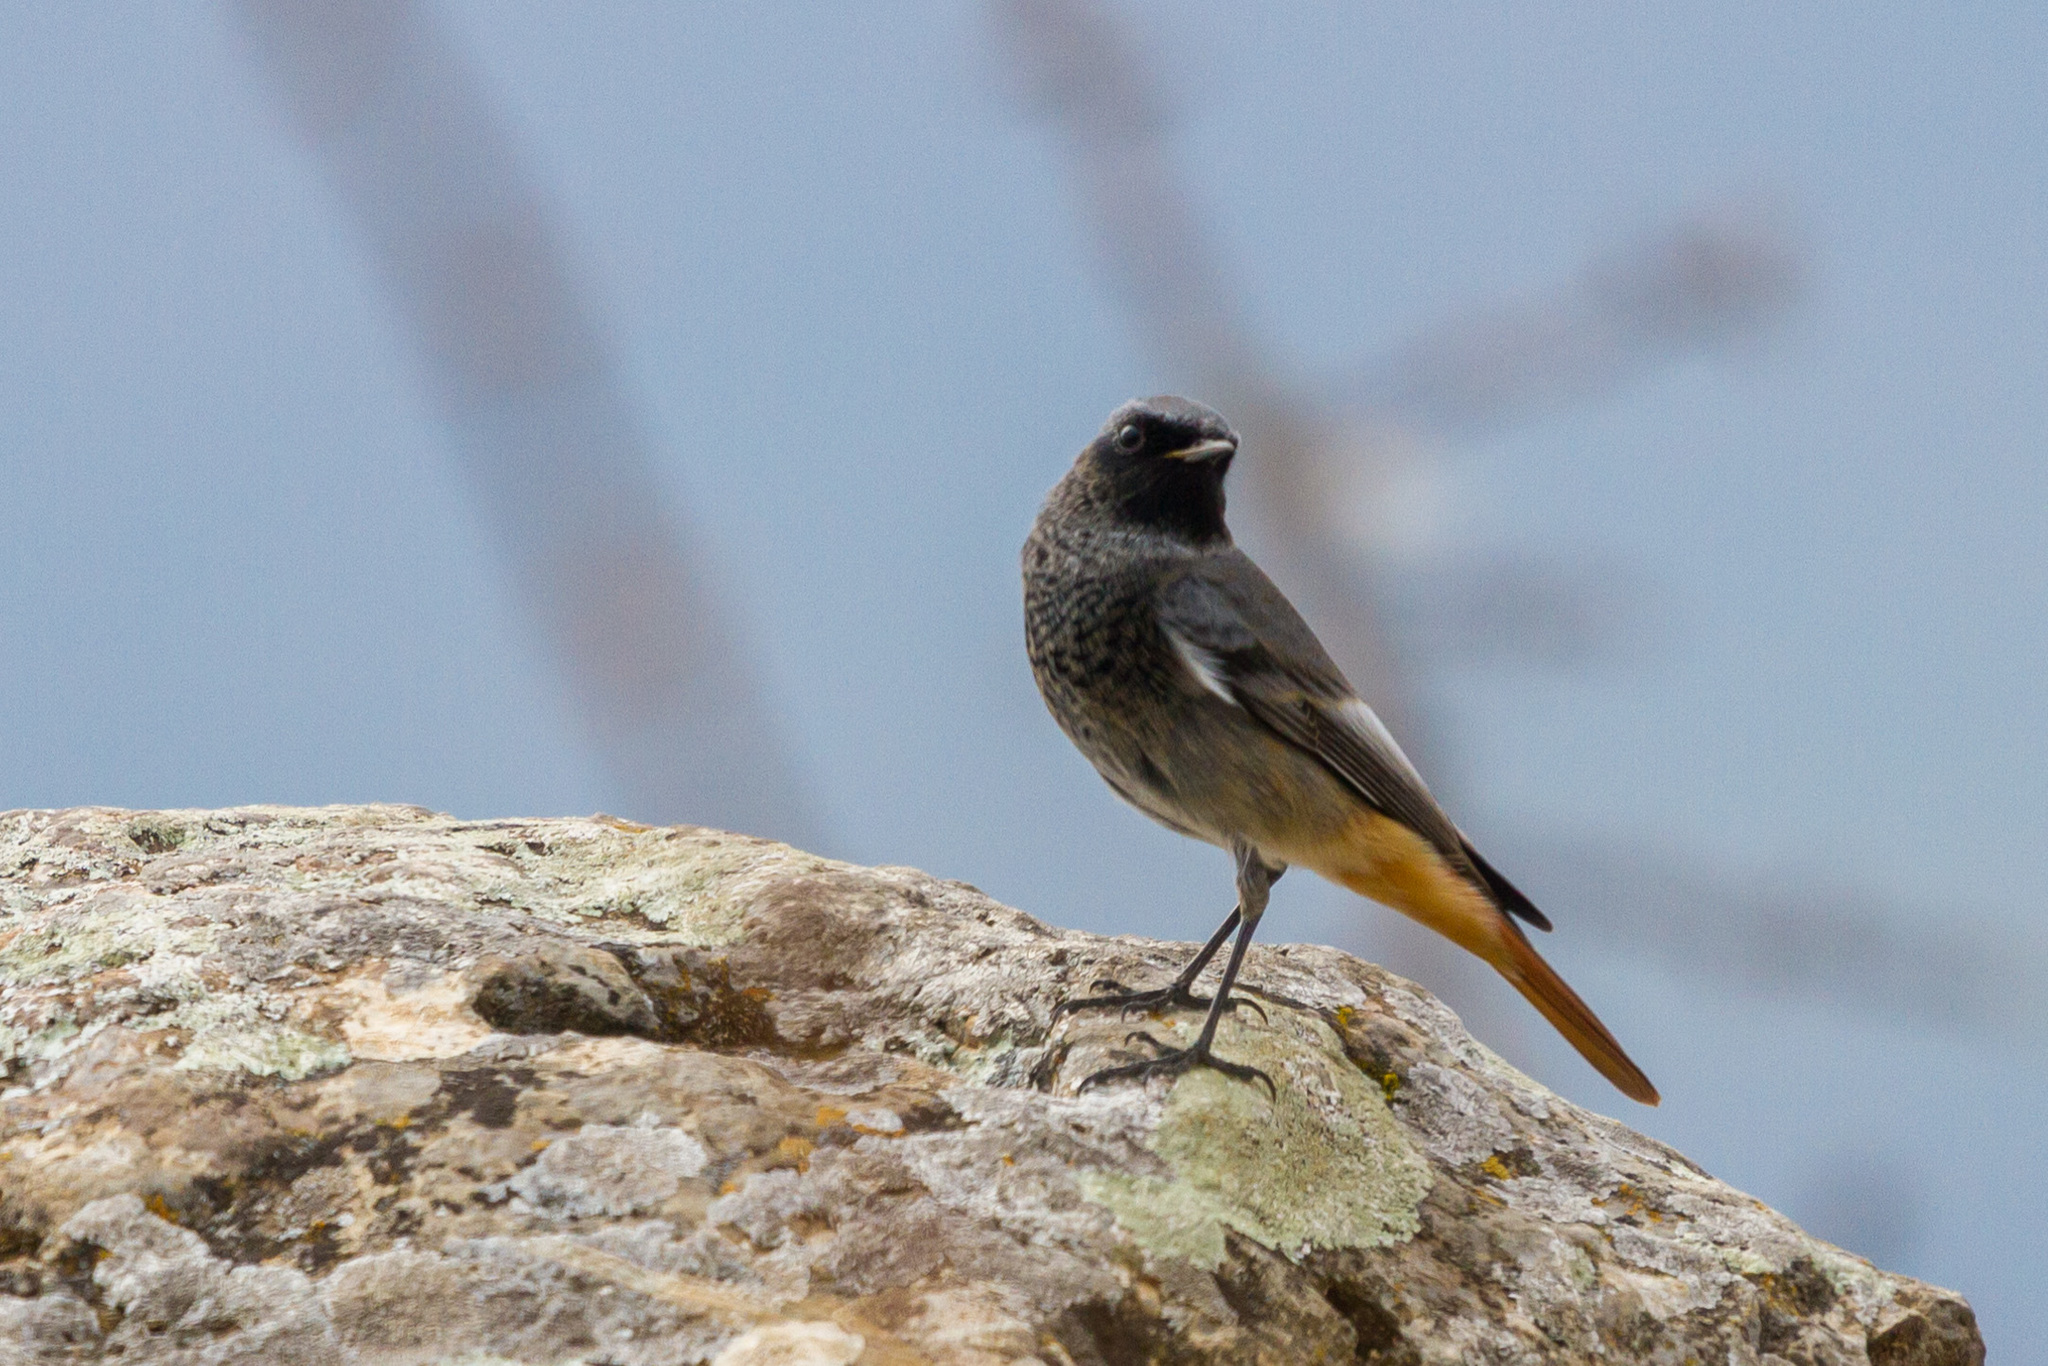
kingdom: Animalia
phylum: Chordata
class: Aves
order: Passeriformes
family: Muscicapidae
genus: Phoenicurus
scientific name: Phoenicurus ochruros
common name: Black redstart
